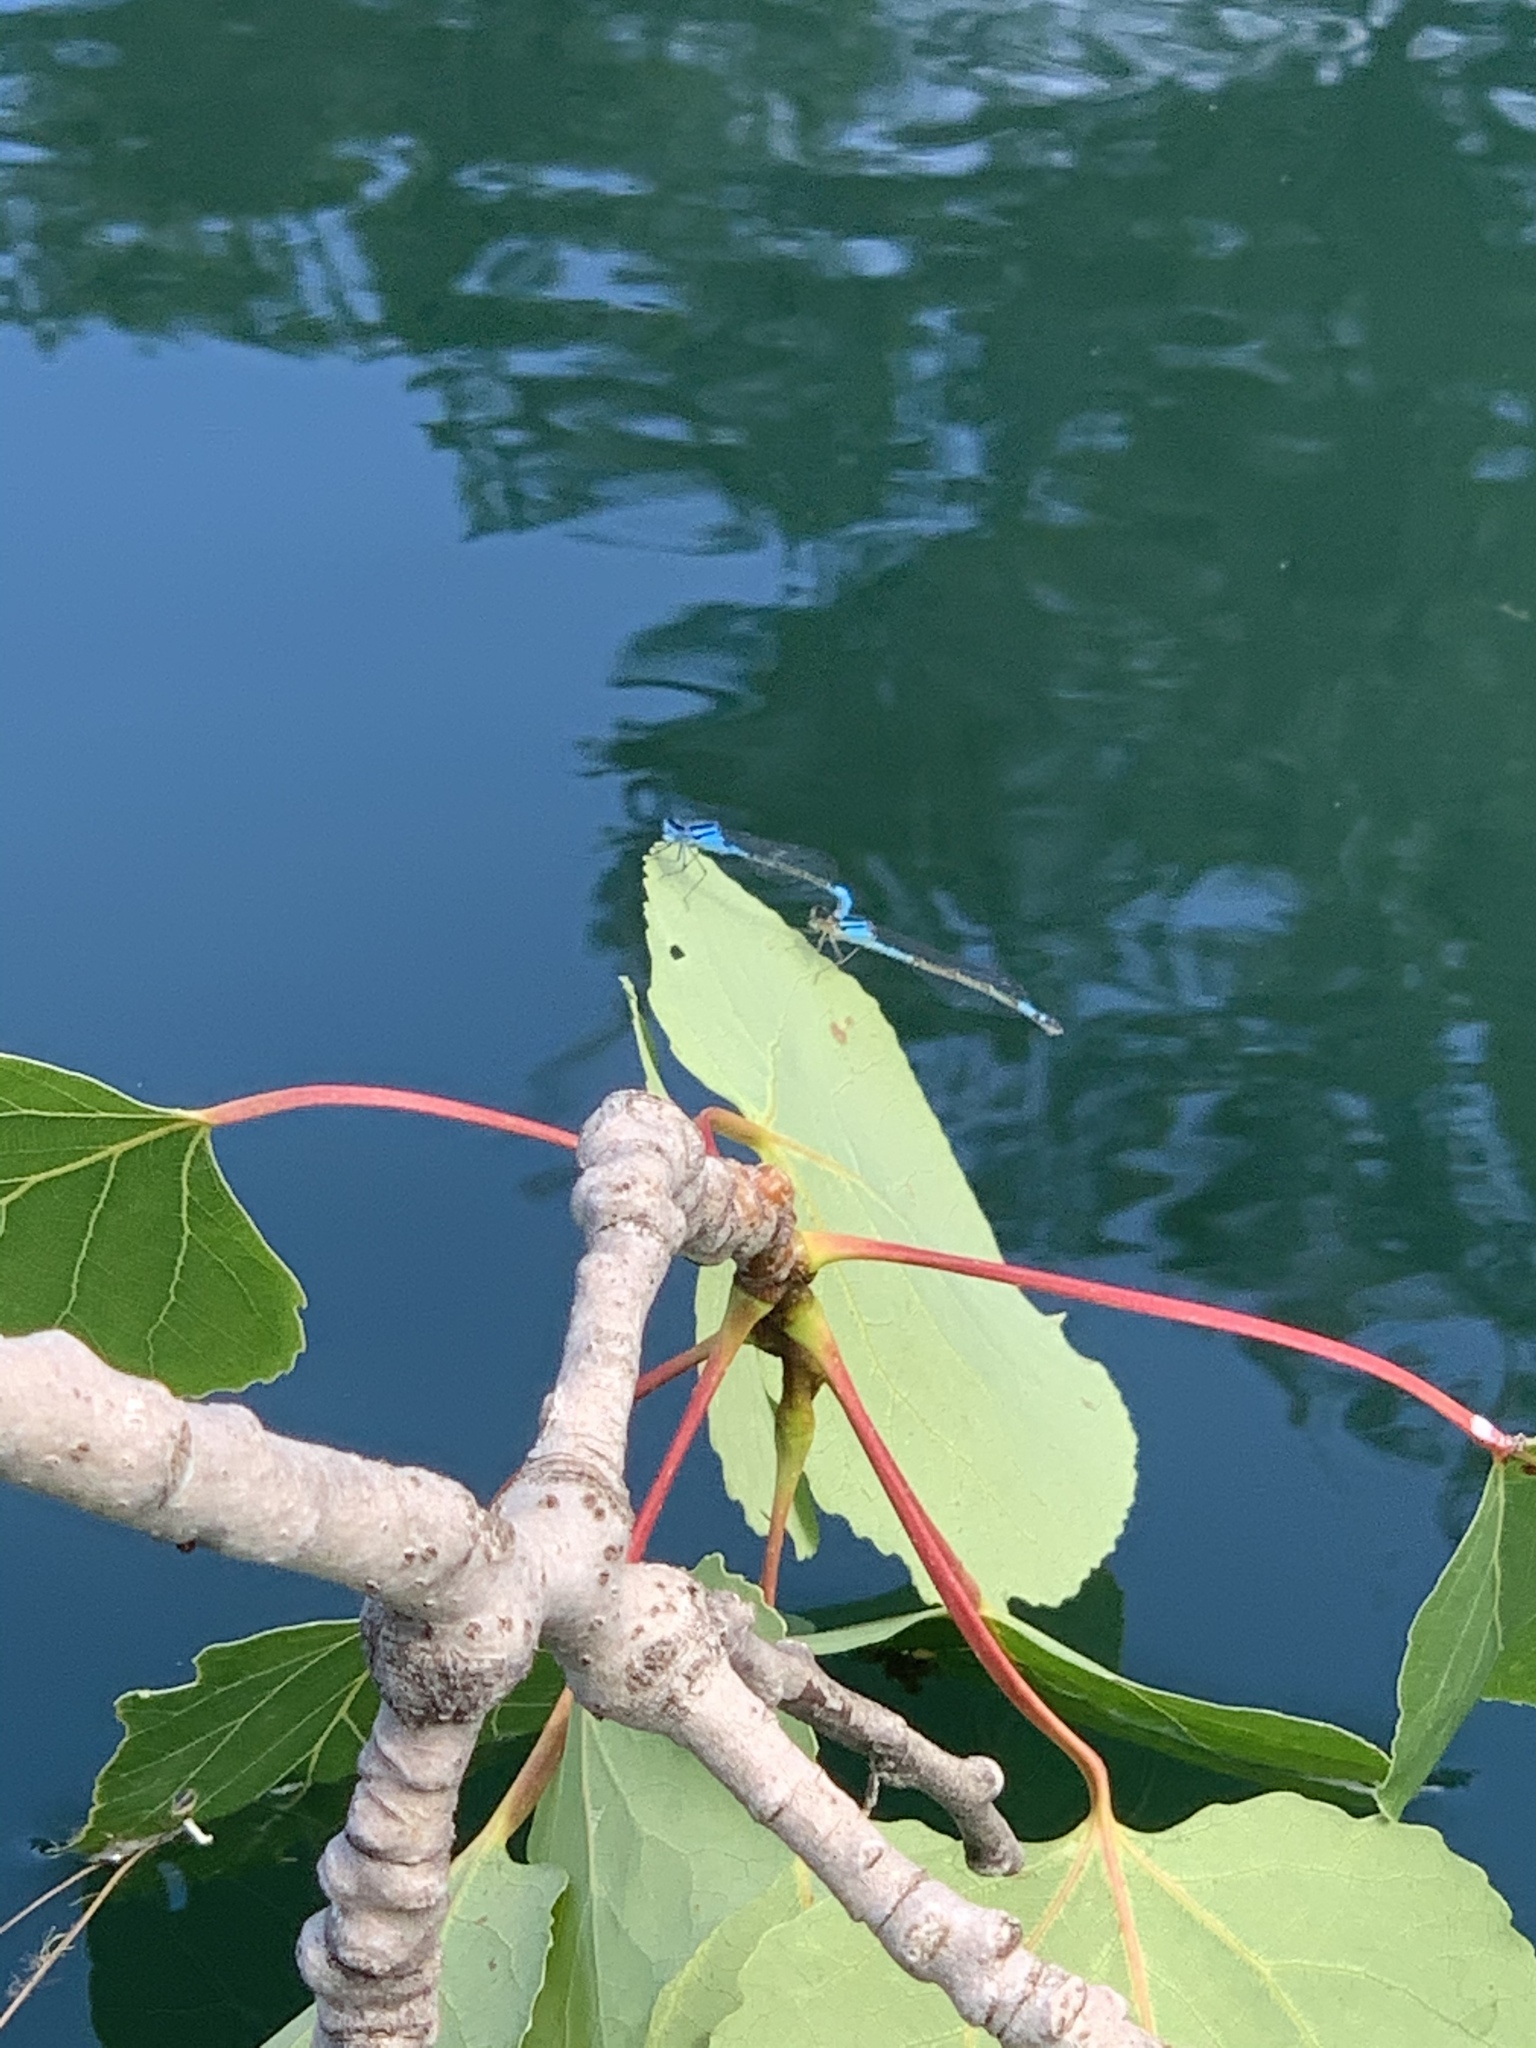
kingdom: Animalia
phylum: Arthropoda
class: Insecta
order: Odonata
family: Coenagrionidae
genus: Enallagma
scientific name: Enallagma aspersum
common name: Azure bluet
